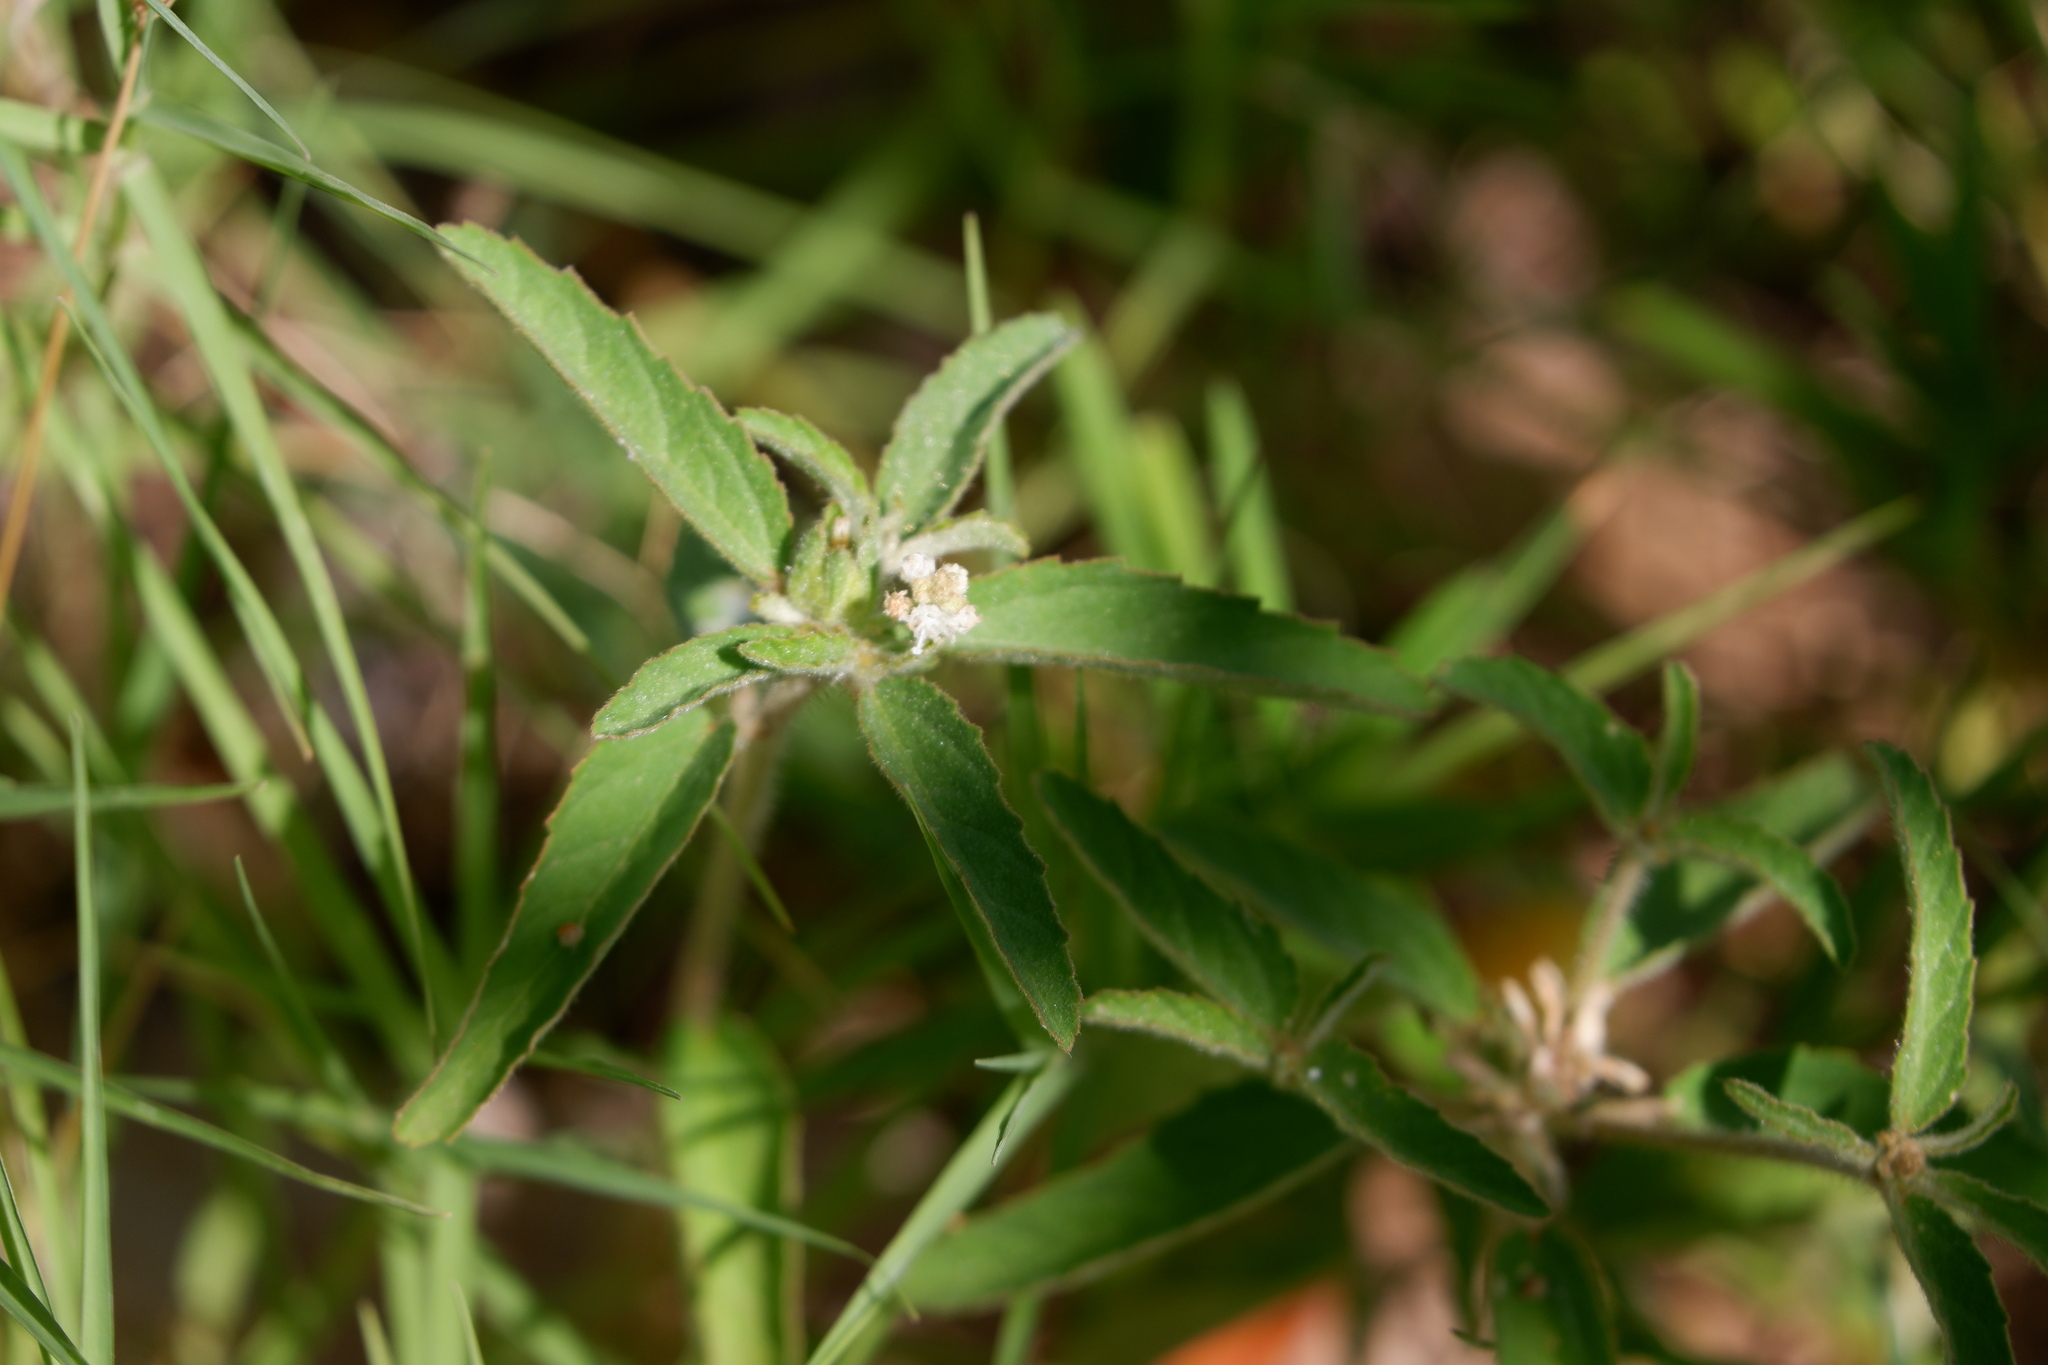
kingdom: Plantae
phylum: Tracheophyta
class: Magnoliopsida
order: Malpighiales
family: Euphorbiaceae
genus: Croton
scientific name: Croton glandulosus
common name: Tropic croton
